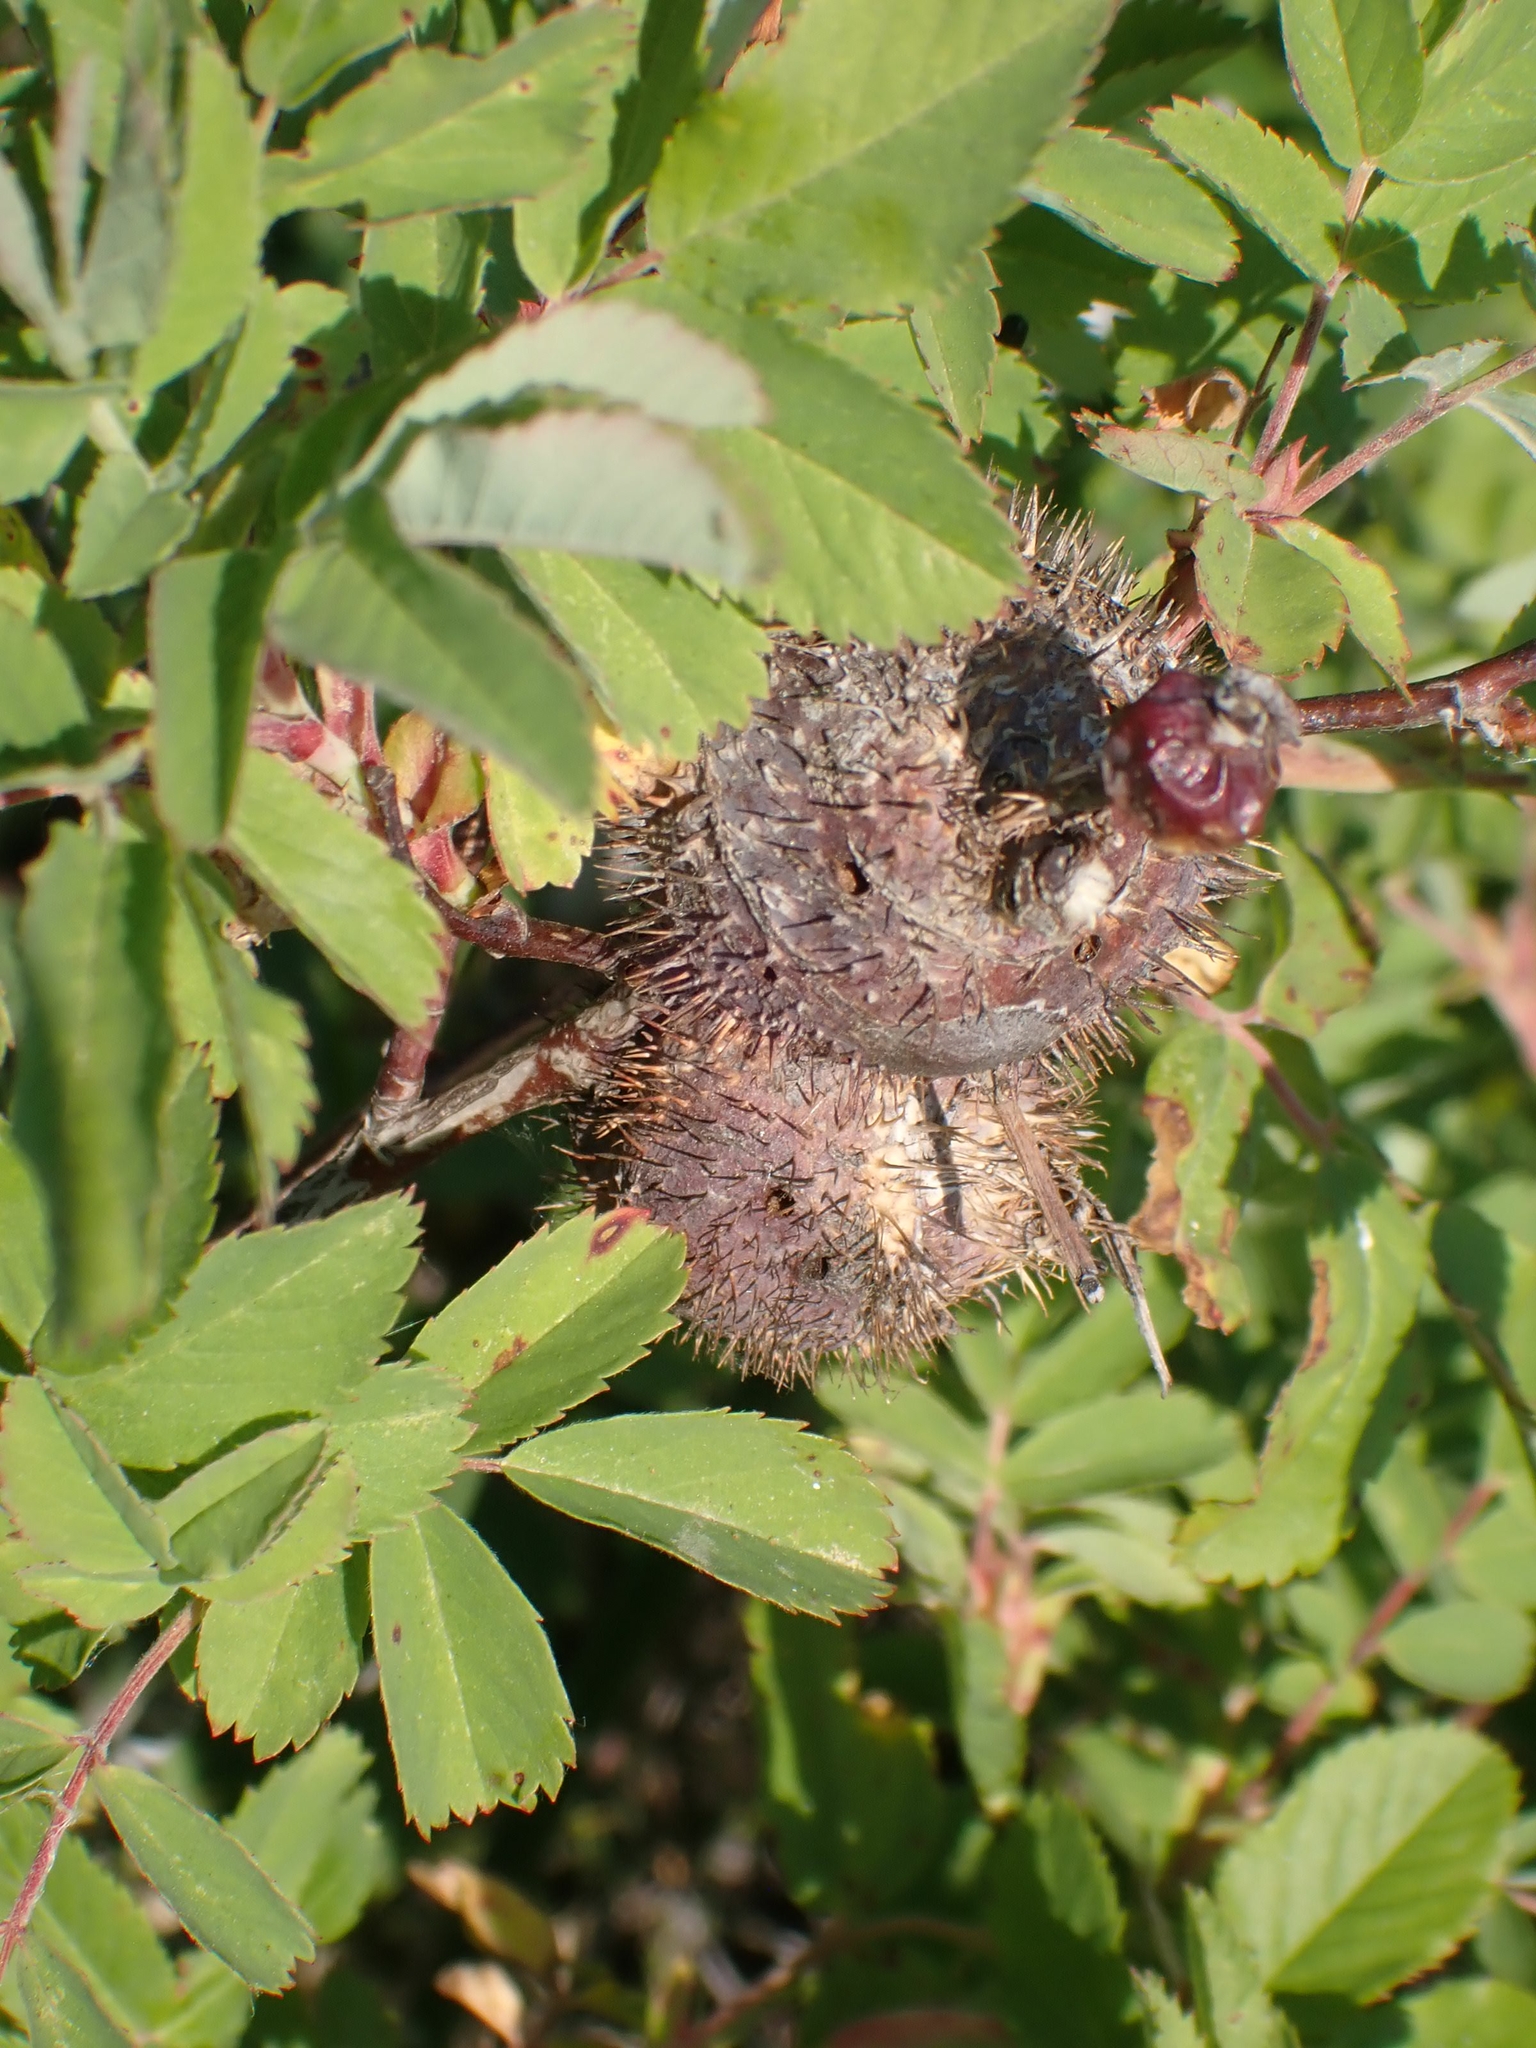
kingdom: Animalia
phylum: Arthropoda
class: Insecta
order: Hymenoptera
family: Cynipidae
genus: Diplolepis
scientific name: Diplolepis spinosa
